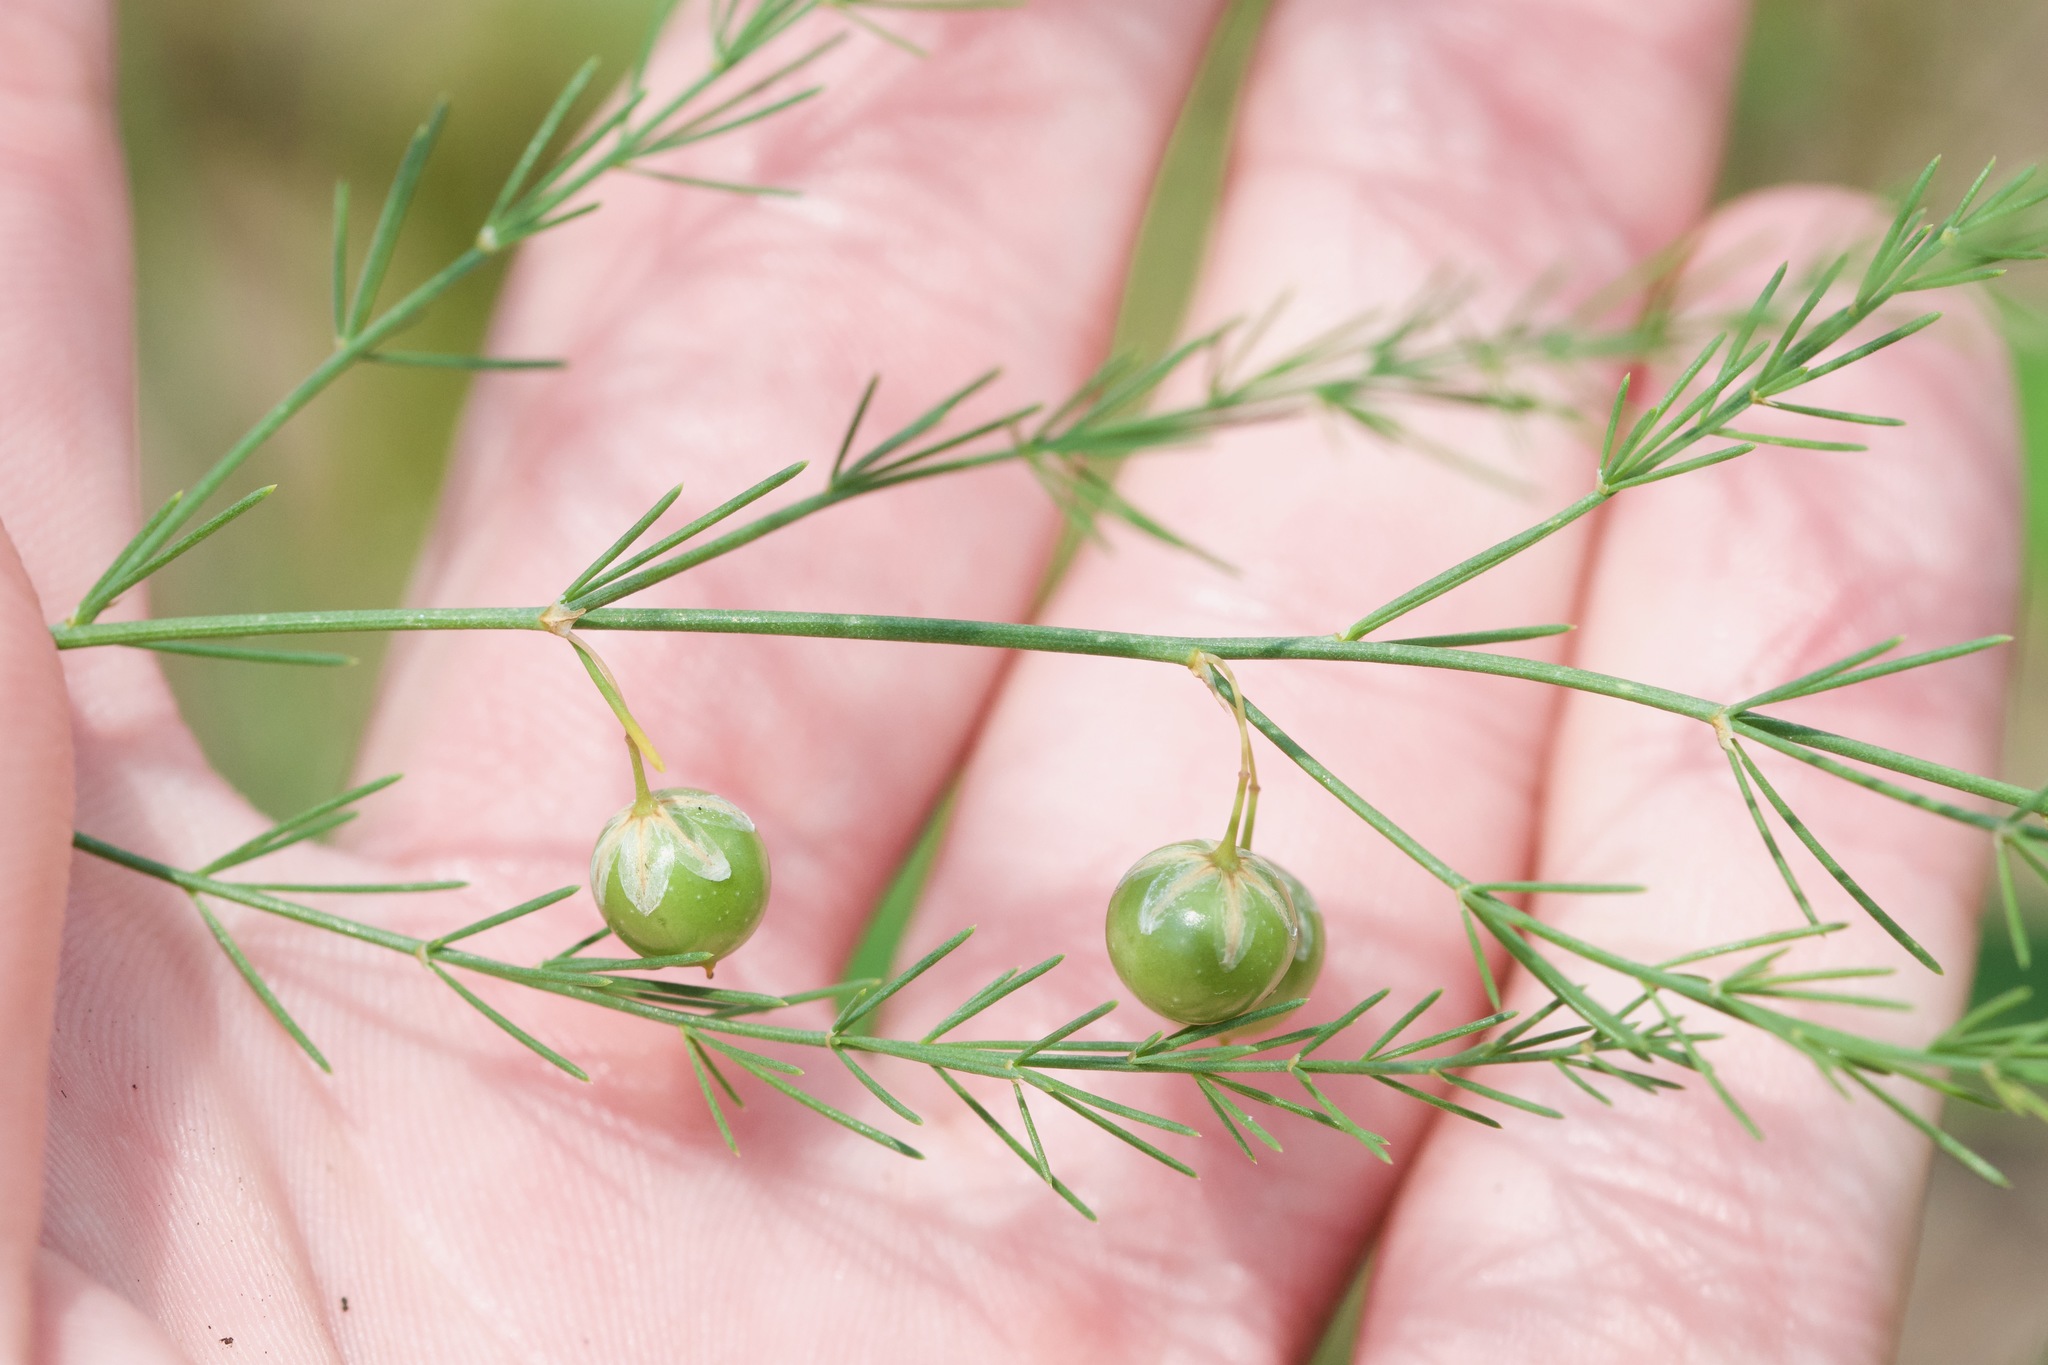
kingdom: Plantae
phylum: Tracheophyta
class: Liliopsida
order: Asparagales
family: Asparagaceae
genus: Asparagus
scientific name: Asparagus officinalis
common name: Garden asparagus
